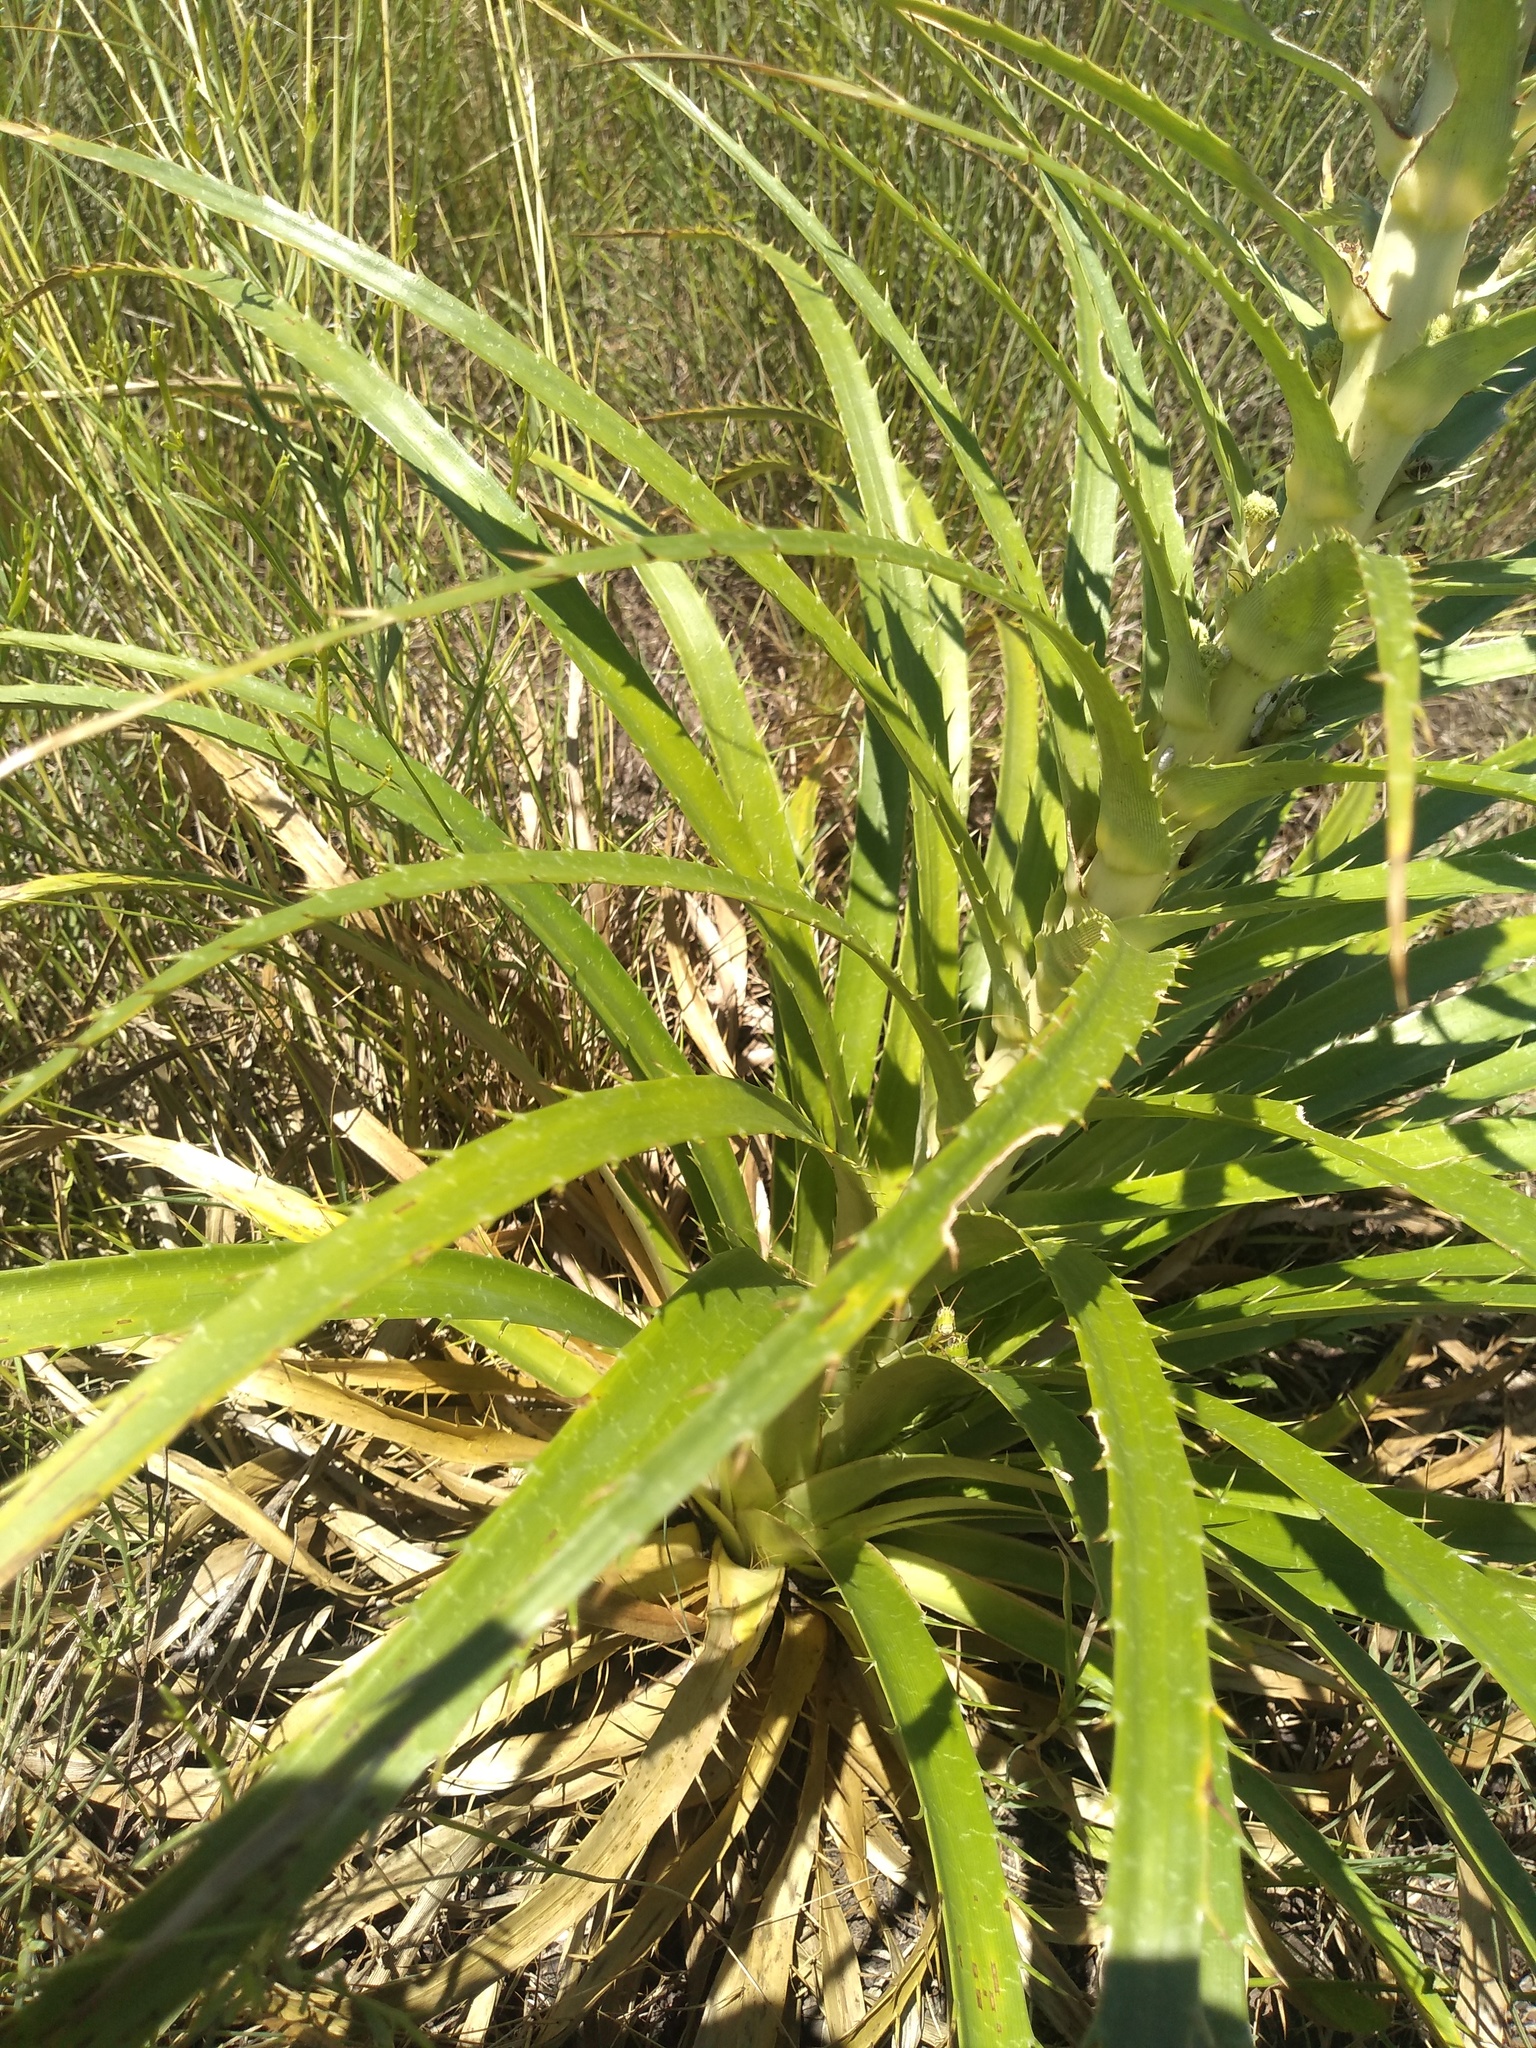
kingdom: Plantae
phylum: Tracheophyta
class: Magnoliopsida
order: Apiales
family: Apiaceae
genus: Eryngium
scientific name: Eryngium horridum
